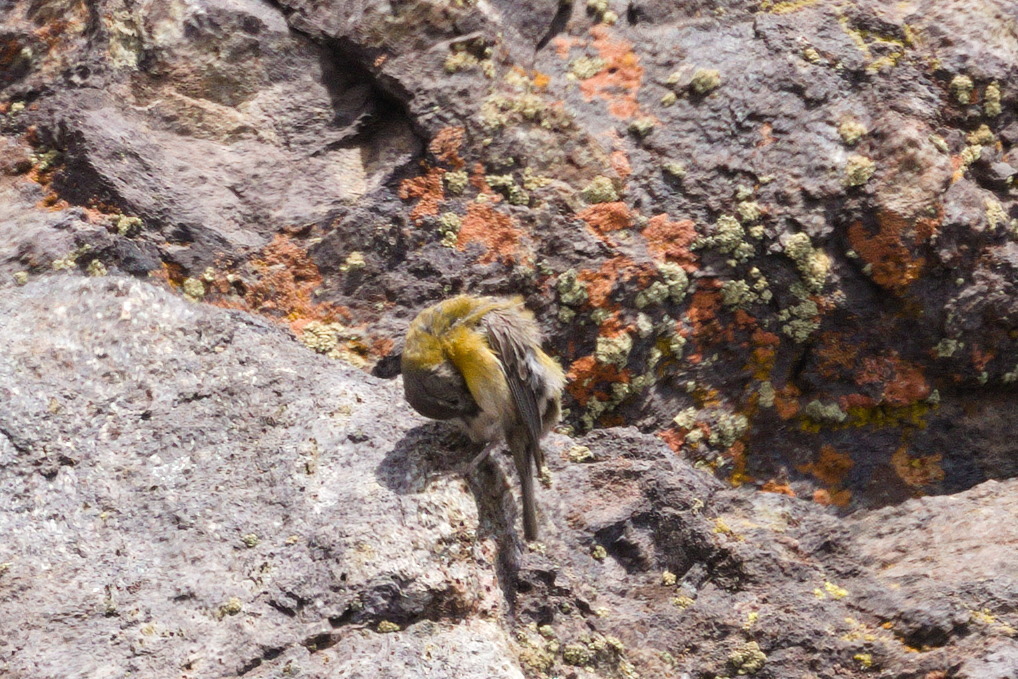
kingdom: Animalia
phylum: Chordata
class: Aves
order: Passeriformes
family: Thraupidae
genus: Phrygilus
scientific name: Phrygilus gayi
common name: Grey-hooded sierra finch
